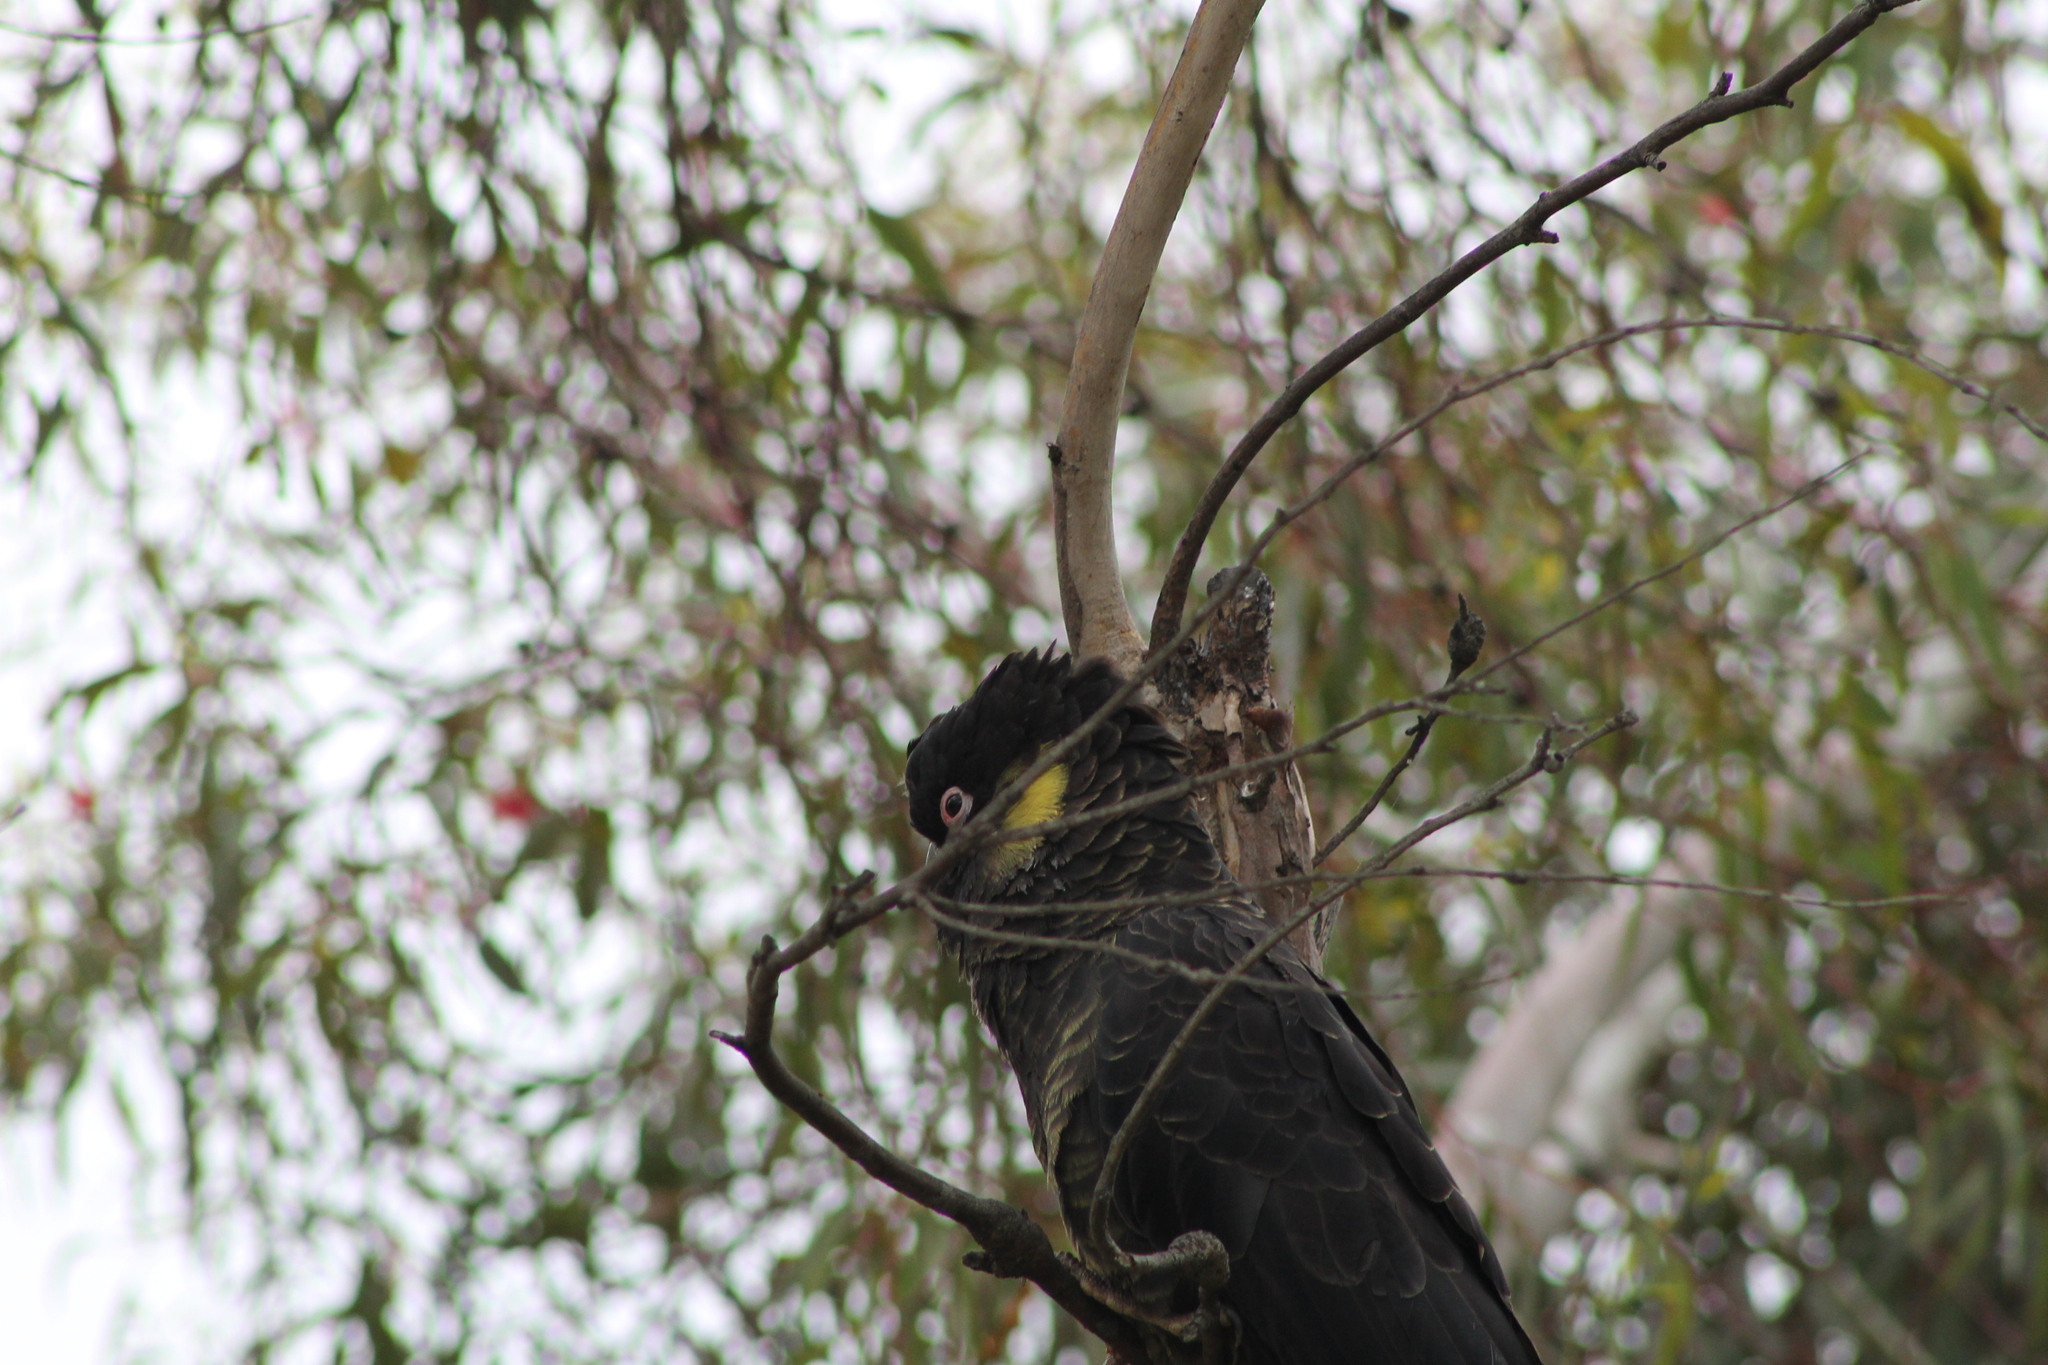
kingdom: Animalia
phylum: Chordata
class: Aves
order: Psittaciformes
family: Cacatuidae
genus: Zanda
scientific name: Zanda funerea
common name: Yellow-tailed black-cockatoo
